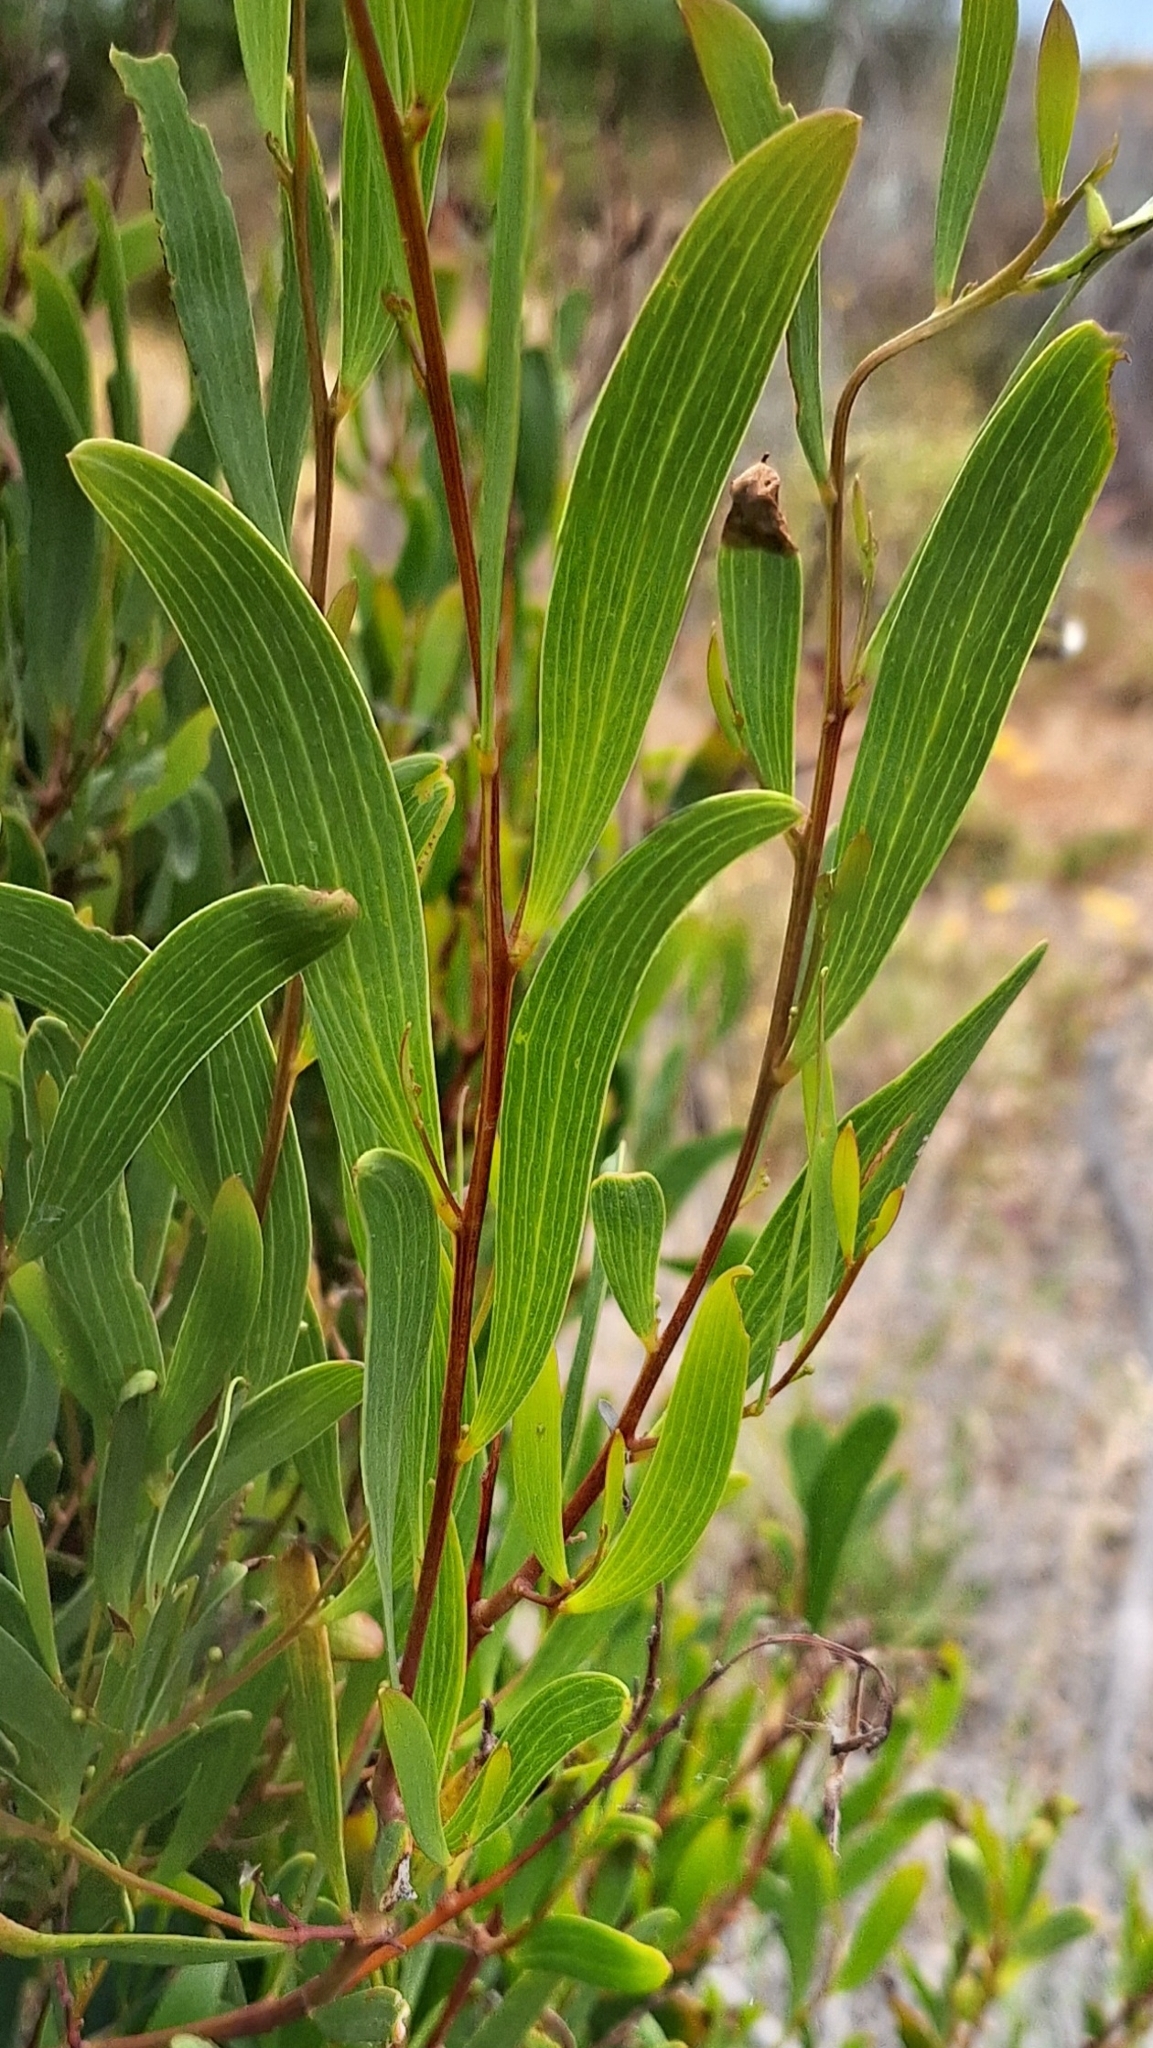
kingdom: Plantae
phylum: Tracheophyta
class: Magnoliopsida
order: Fabales
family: Fabaceae
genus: Acacia
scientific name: Acacia cyclops
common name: Coastal wattle
